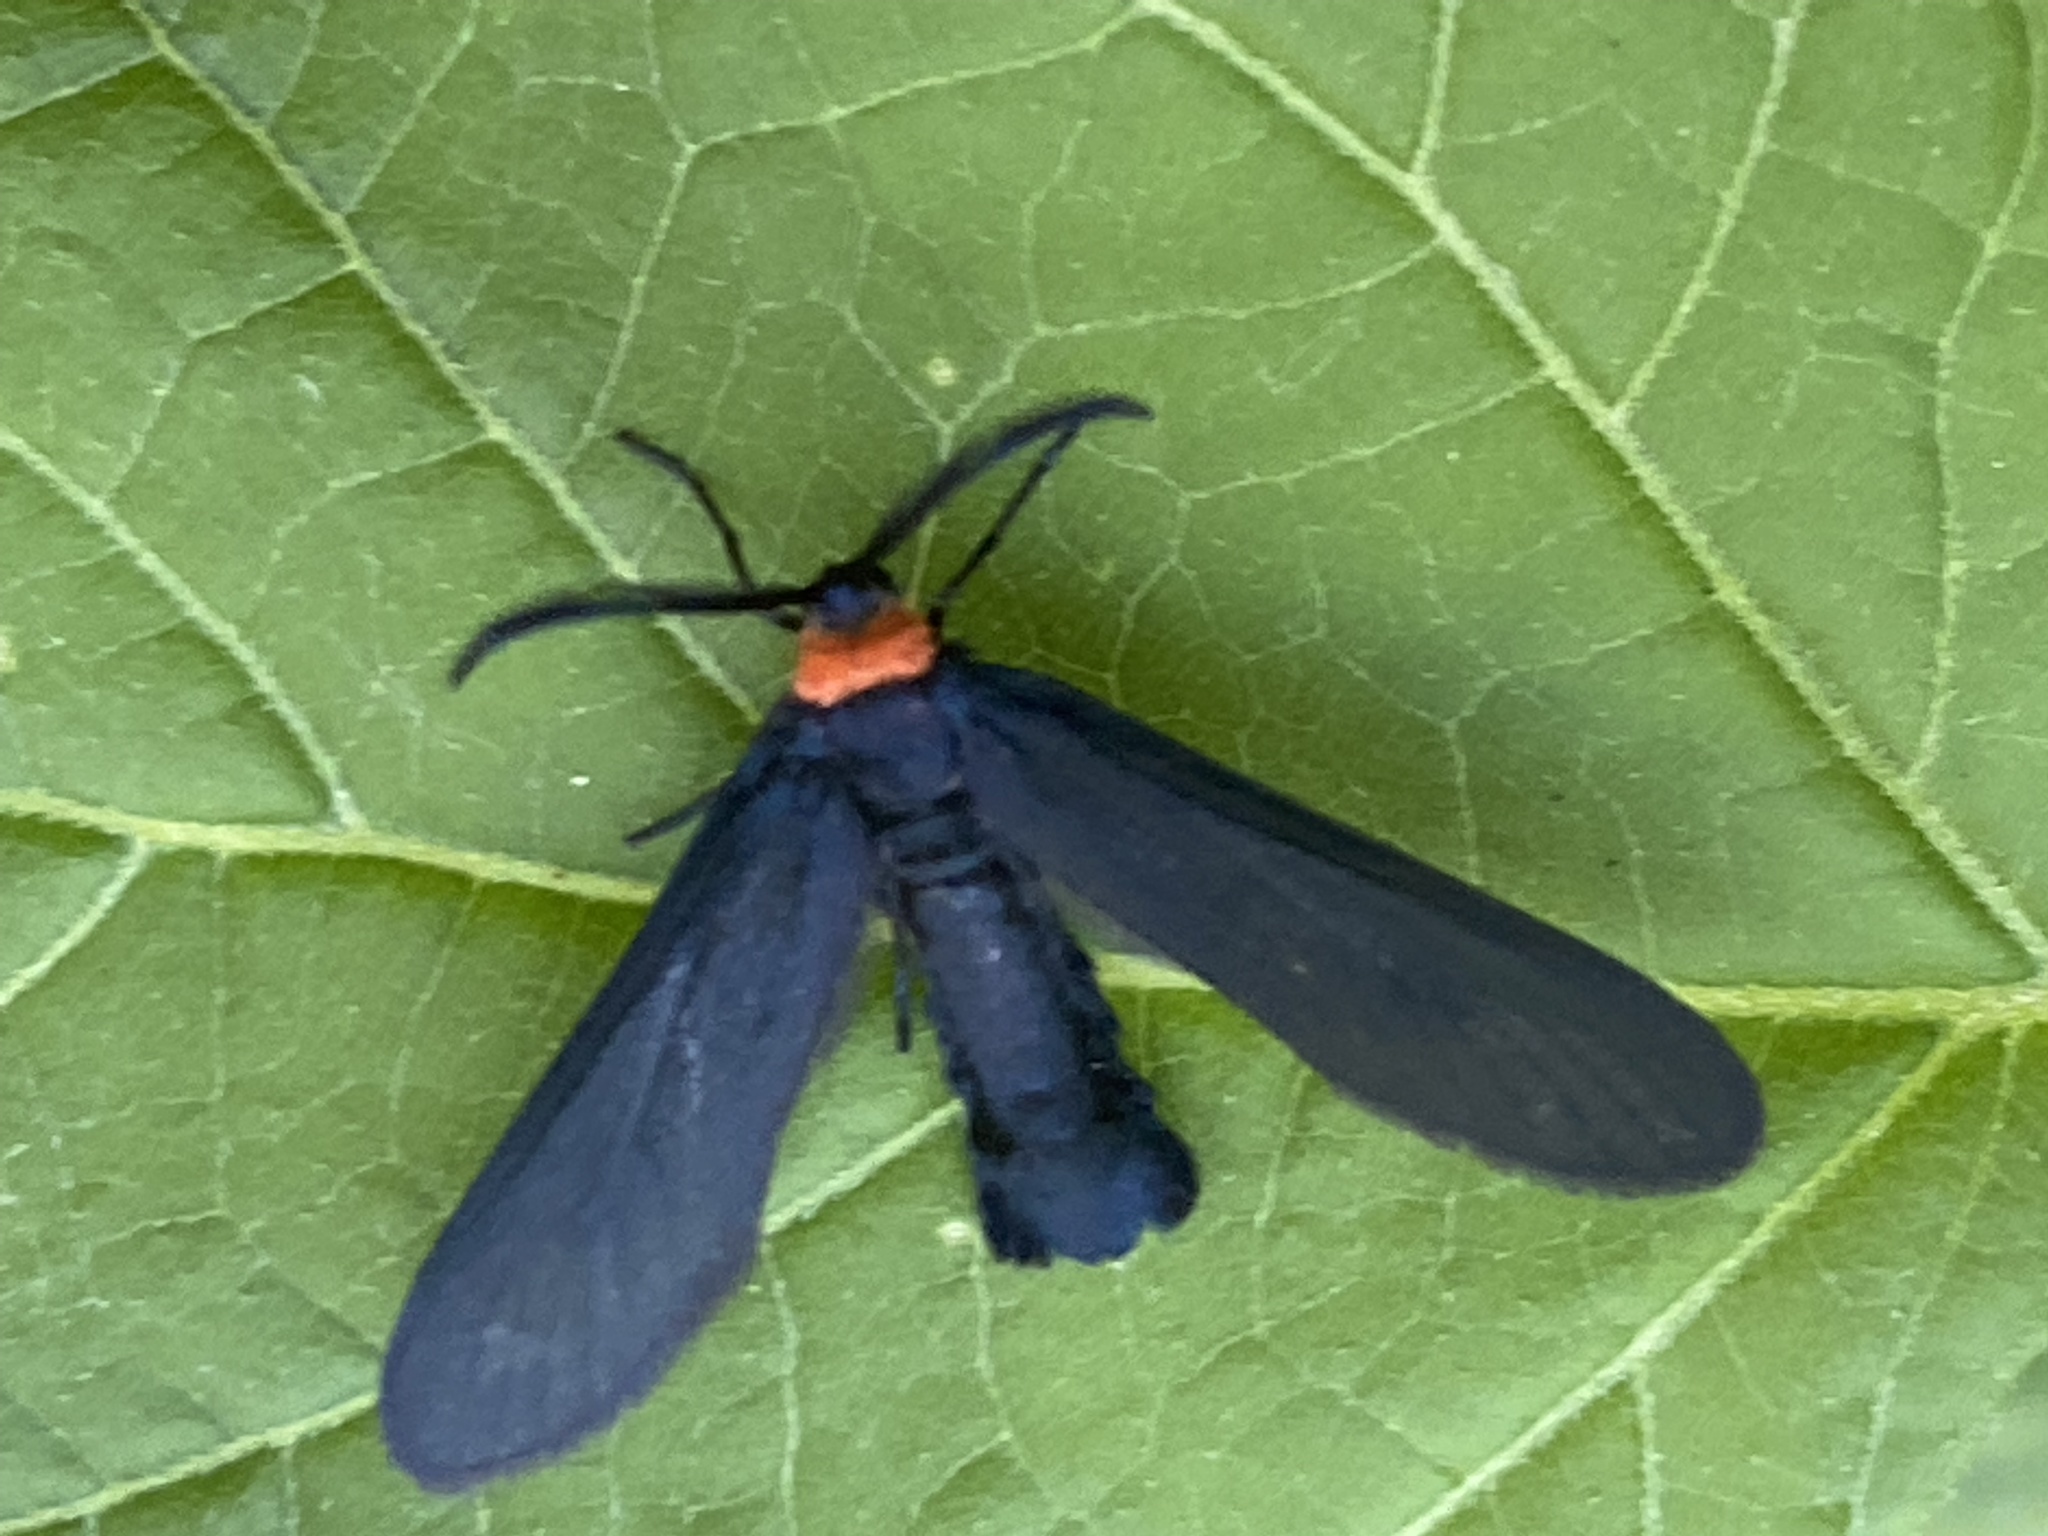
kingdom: Animalia
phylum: Arthropoda
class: Insecta
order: Lepidoptera
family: Zygaenidae
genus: Harrisina
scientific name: Harrisina americana
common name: Grapeleaf skeletonizer moth
